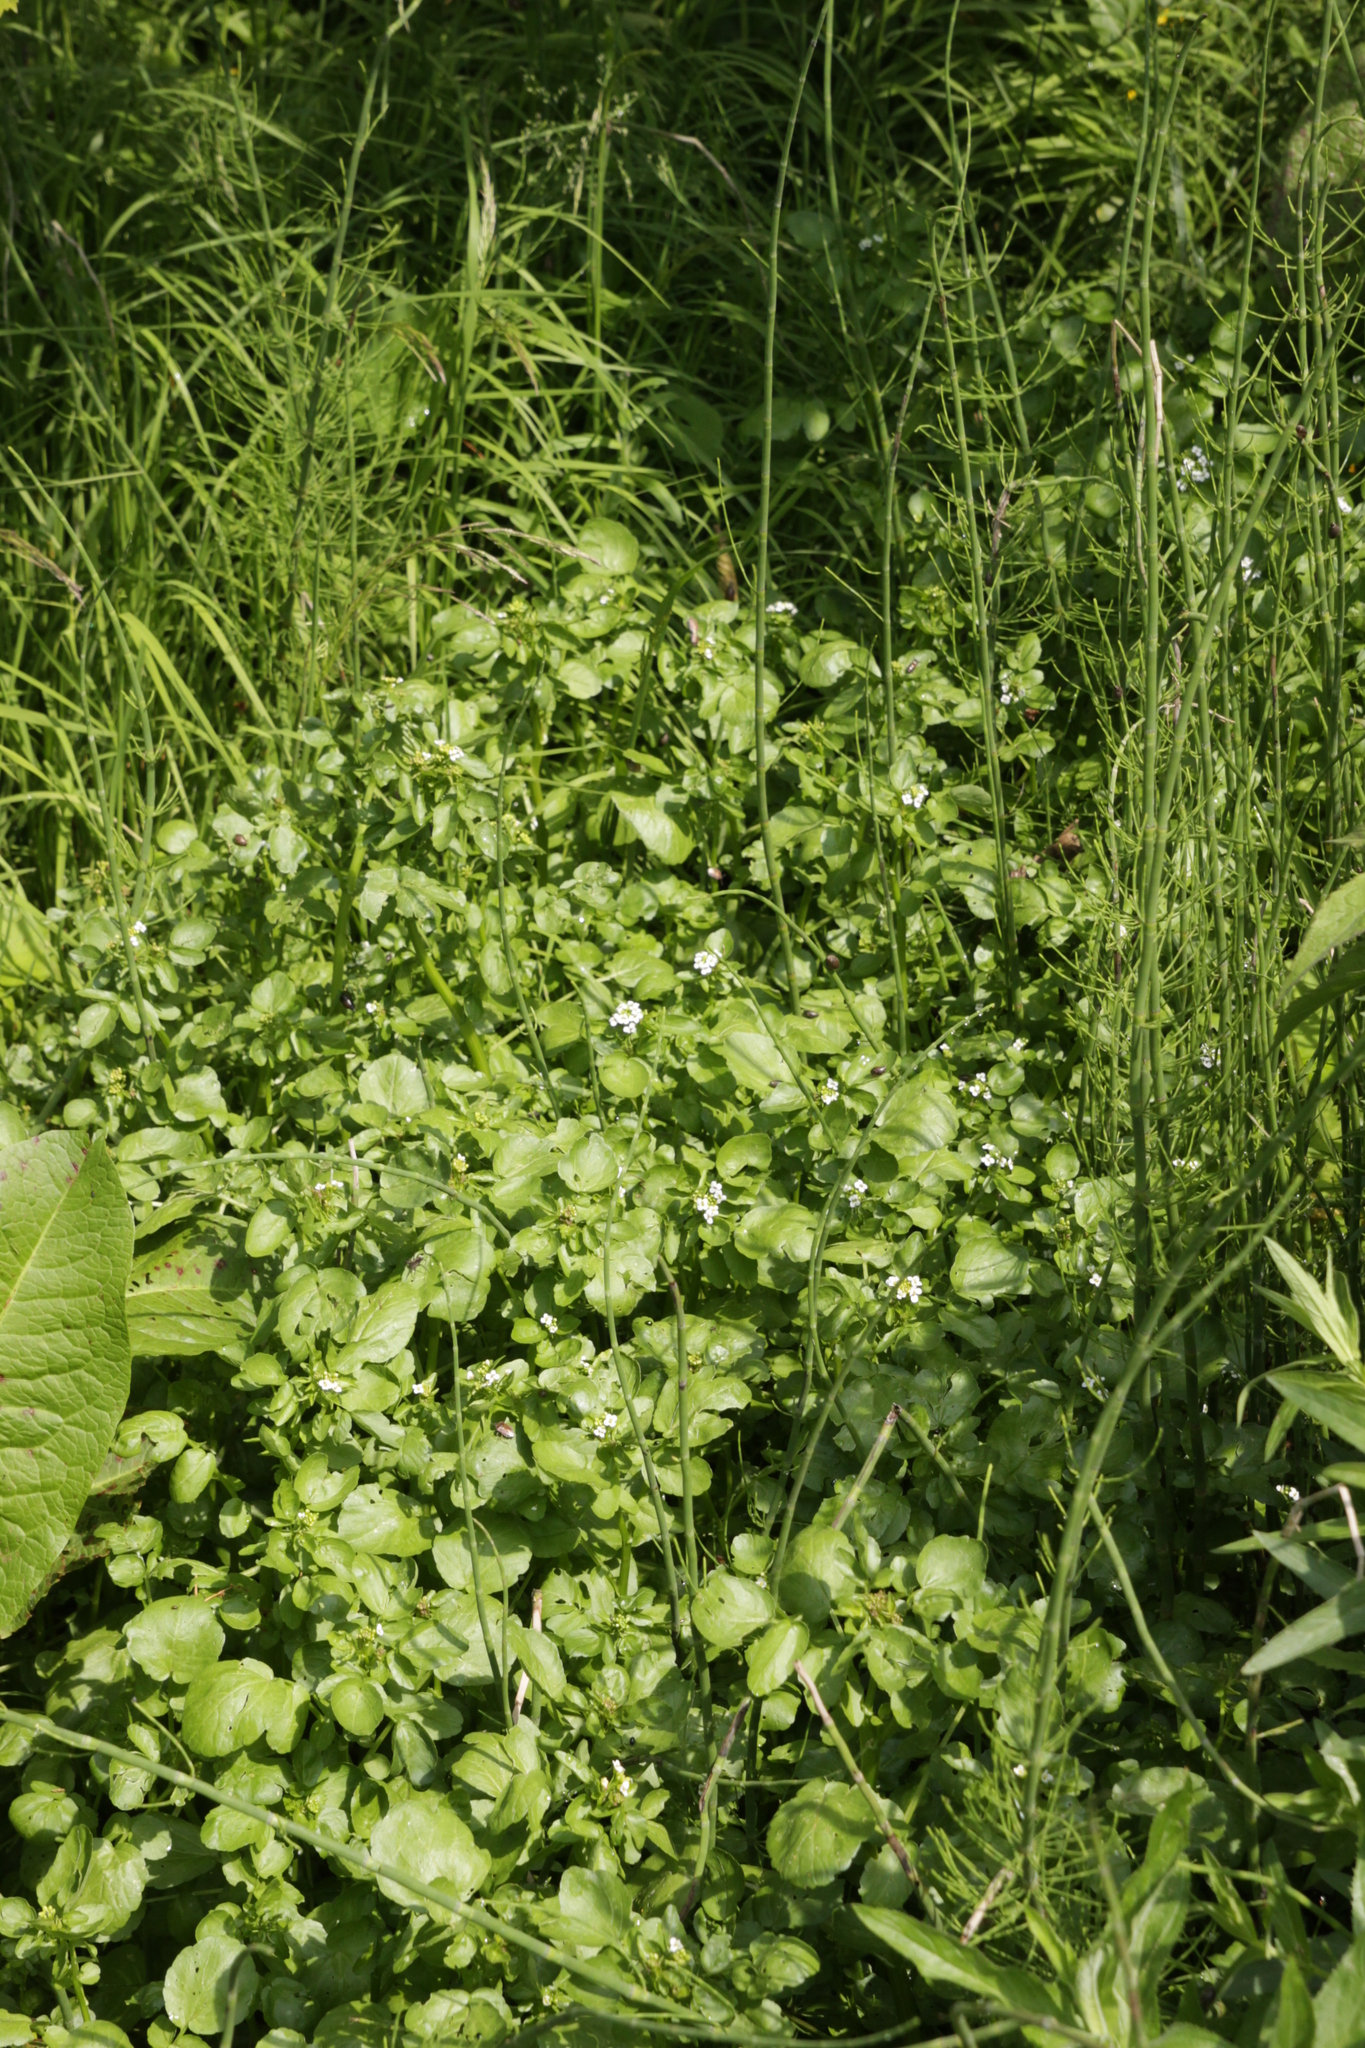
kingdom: Plantae
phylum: Tracheophyta
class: Magnoliopsida
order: Brassicales
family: Brassicaceae
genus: Nasturtium
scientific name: Nasturtium officinale
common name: Watercress
